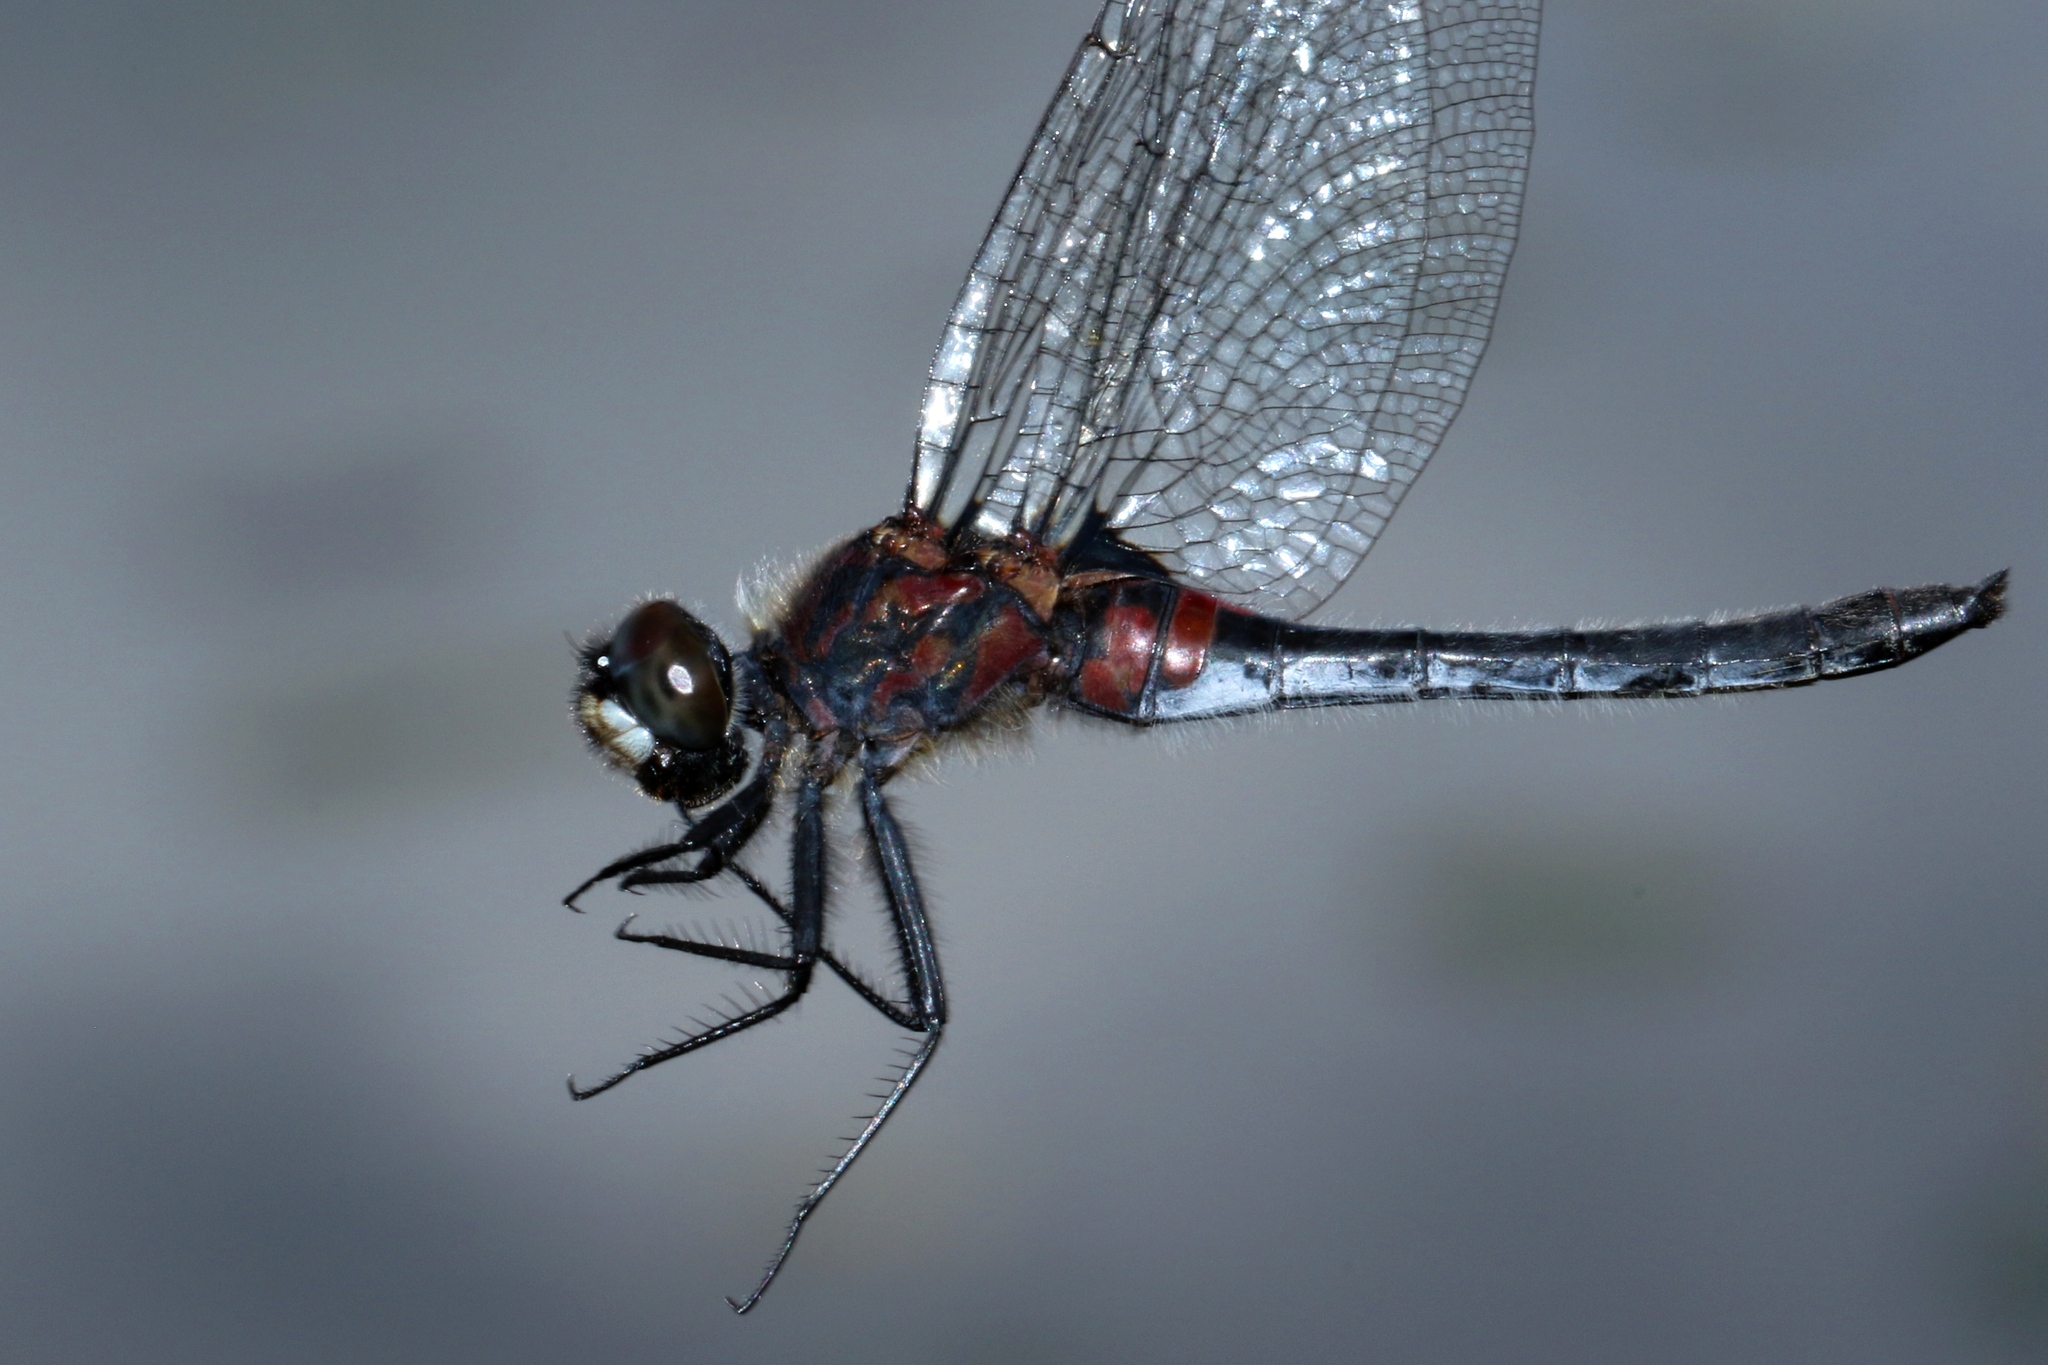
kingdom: Animalia
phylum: Arthropoda
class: Insecta
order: Odonata
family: Libellulidae
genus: Leucorrhinia
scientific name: Leucorrhinia glacialis
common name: Crimson-ringed whiteface
